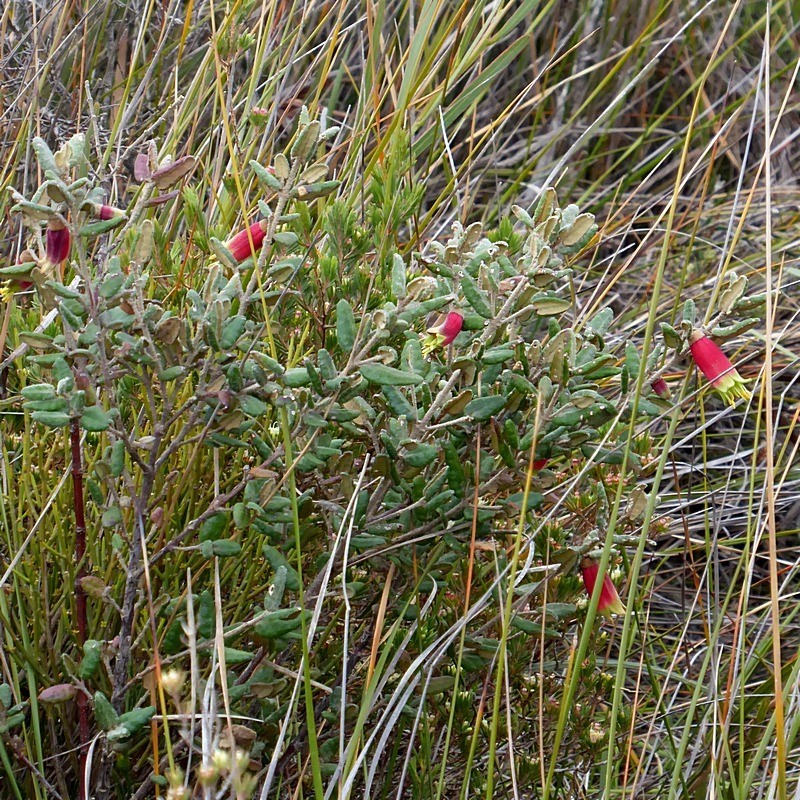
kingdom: Plantae
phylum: Tracheophyta
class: Magnoliopsida
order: Sapindales
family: Rutaceae
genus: Correa
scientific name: Correa reflexa
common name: Common correa
